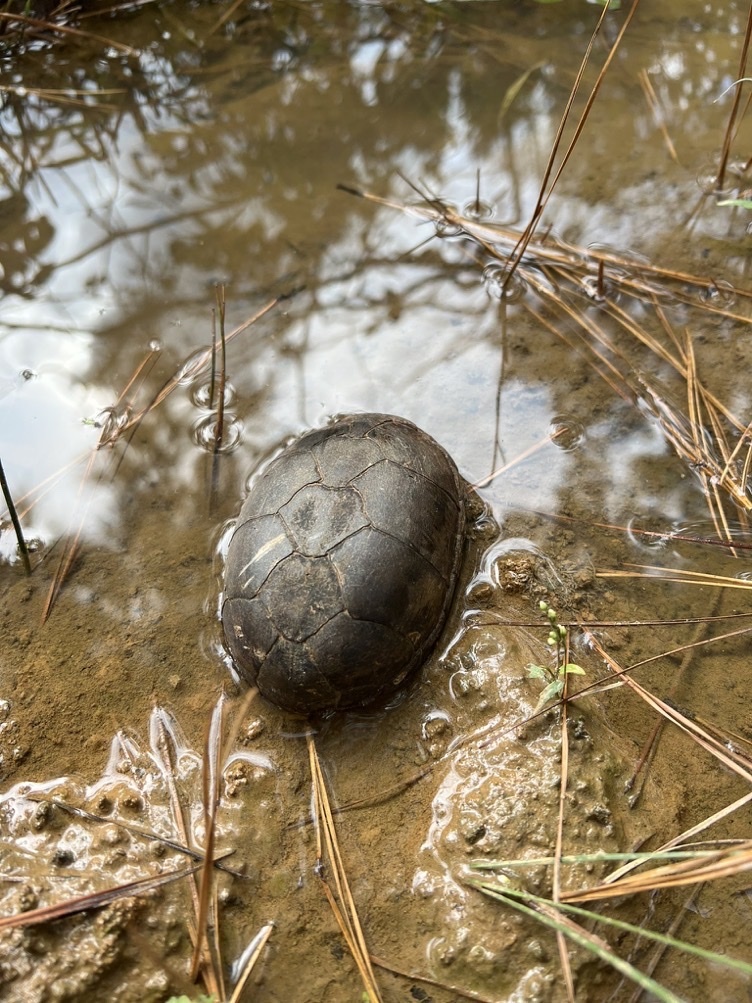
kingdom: Animalia
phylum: Chordata
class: Testudines
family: Kinosternidae
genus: Kinosternon
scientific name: Kinosternon subrubrum
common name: Eastern mud turtle
